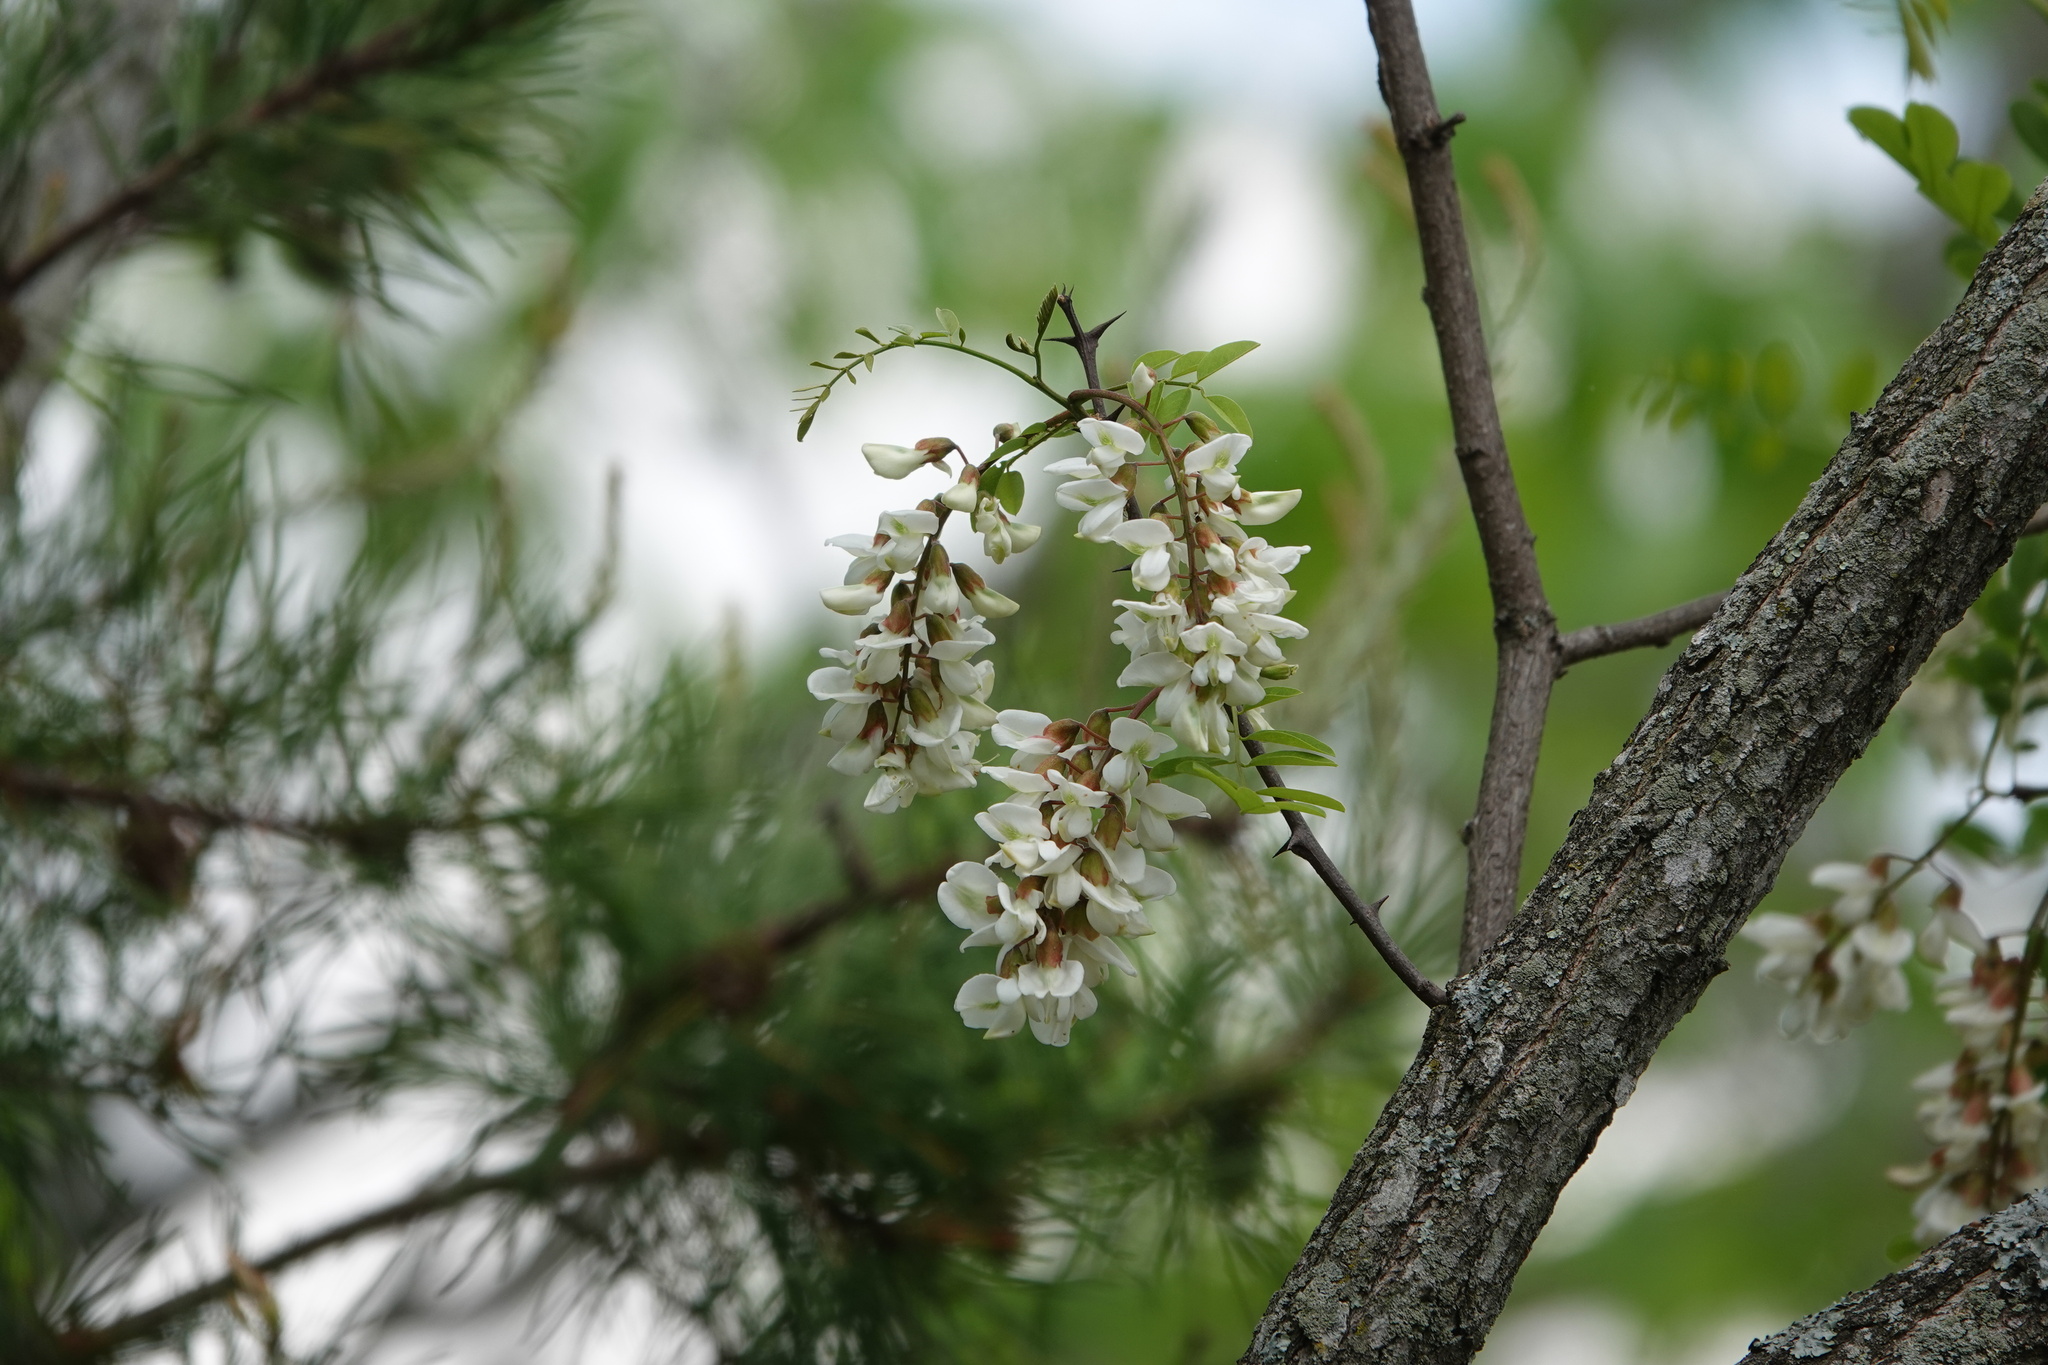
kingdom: Plantae
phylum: Tracheophyta
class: Magnoliopsida
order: Fabales
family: Fabaceae
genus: Robinia
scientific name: Robinia pseudoacacia
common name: Black locust
